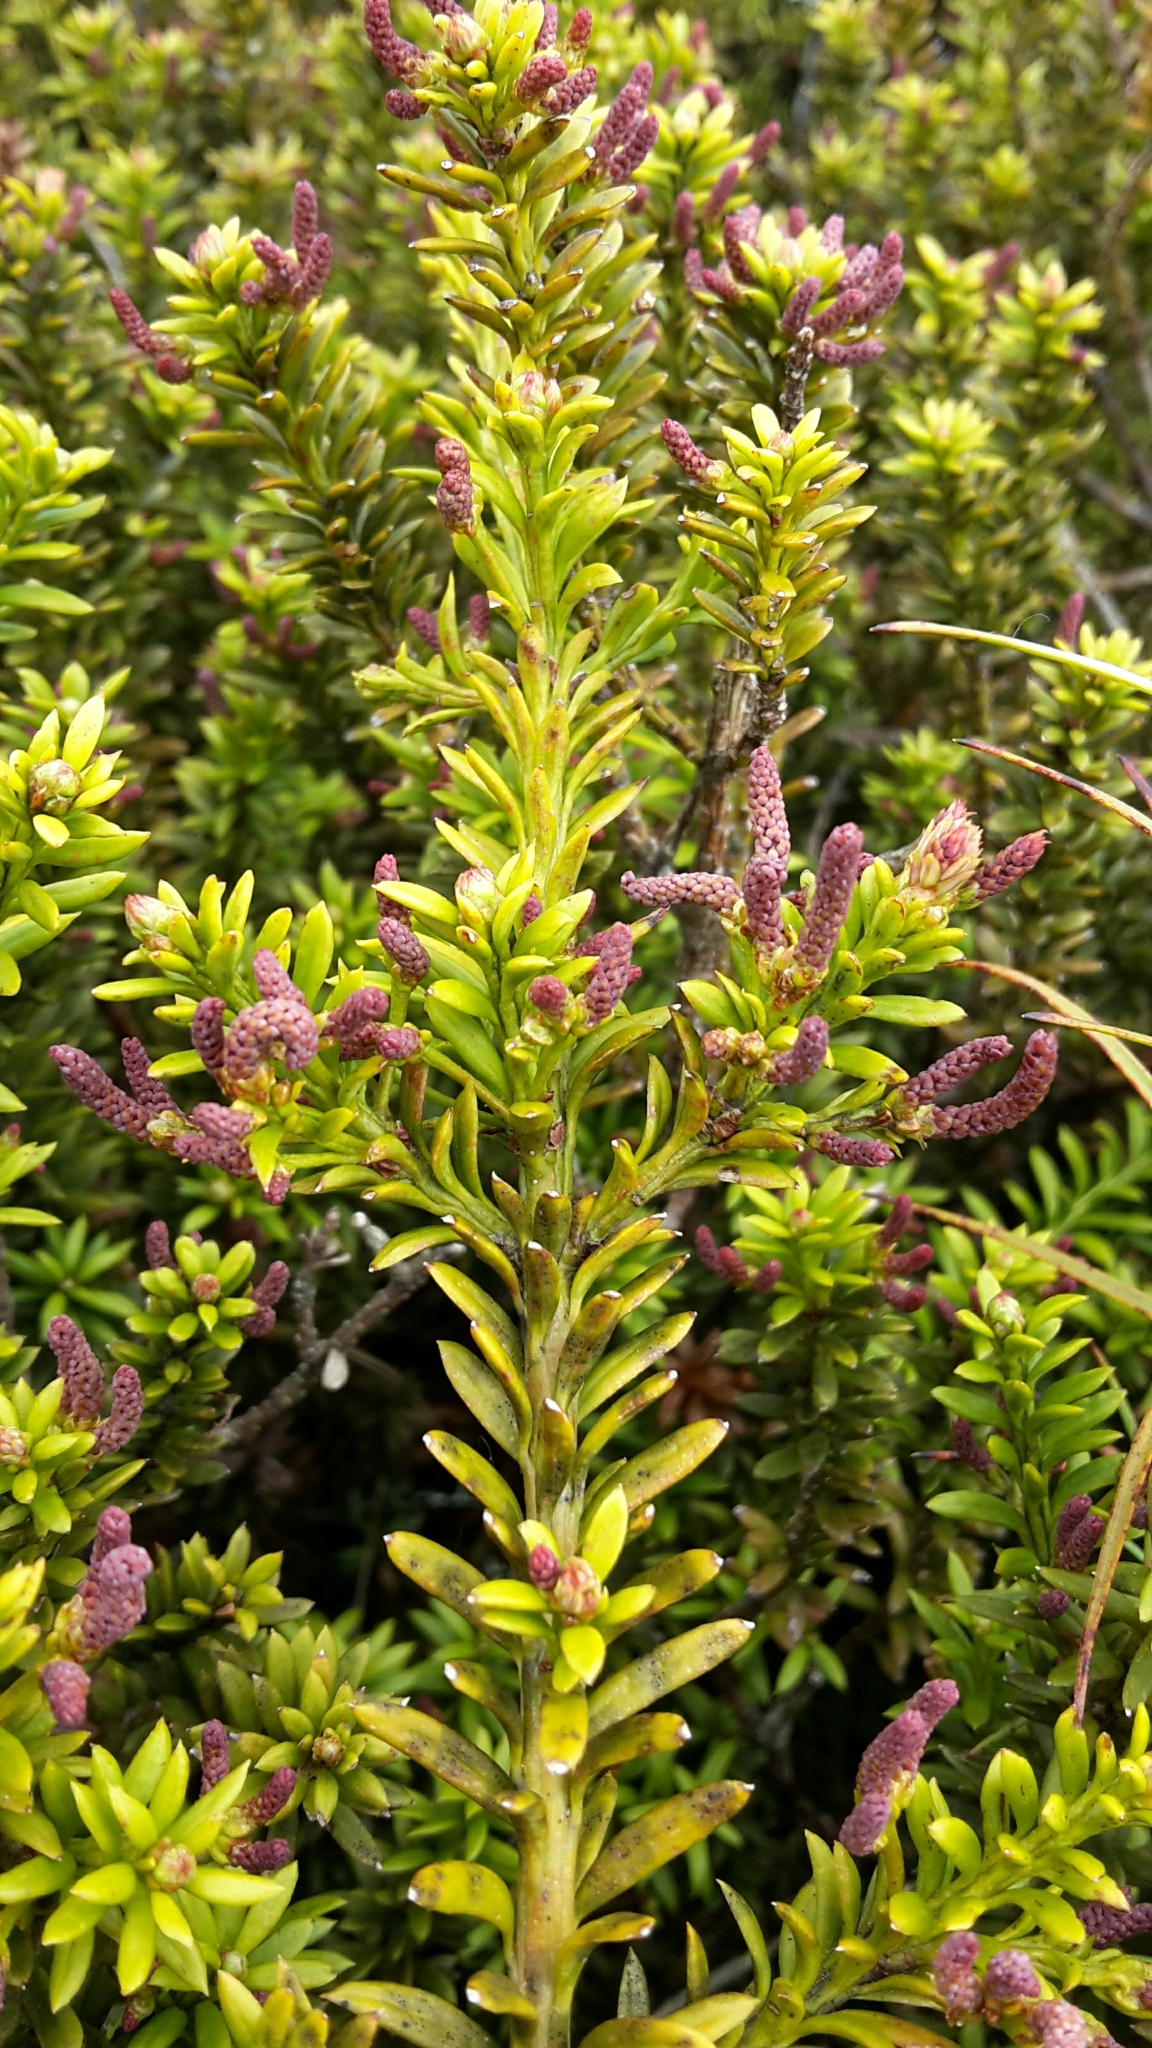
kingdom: Plantae
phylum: Tracheophyta
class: Pinopsida
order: Pinales
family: Podocarpaceae
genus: Podocarpus
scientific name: Podocarpus nivalis
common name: Alpine totara
